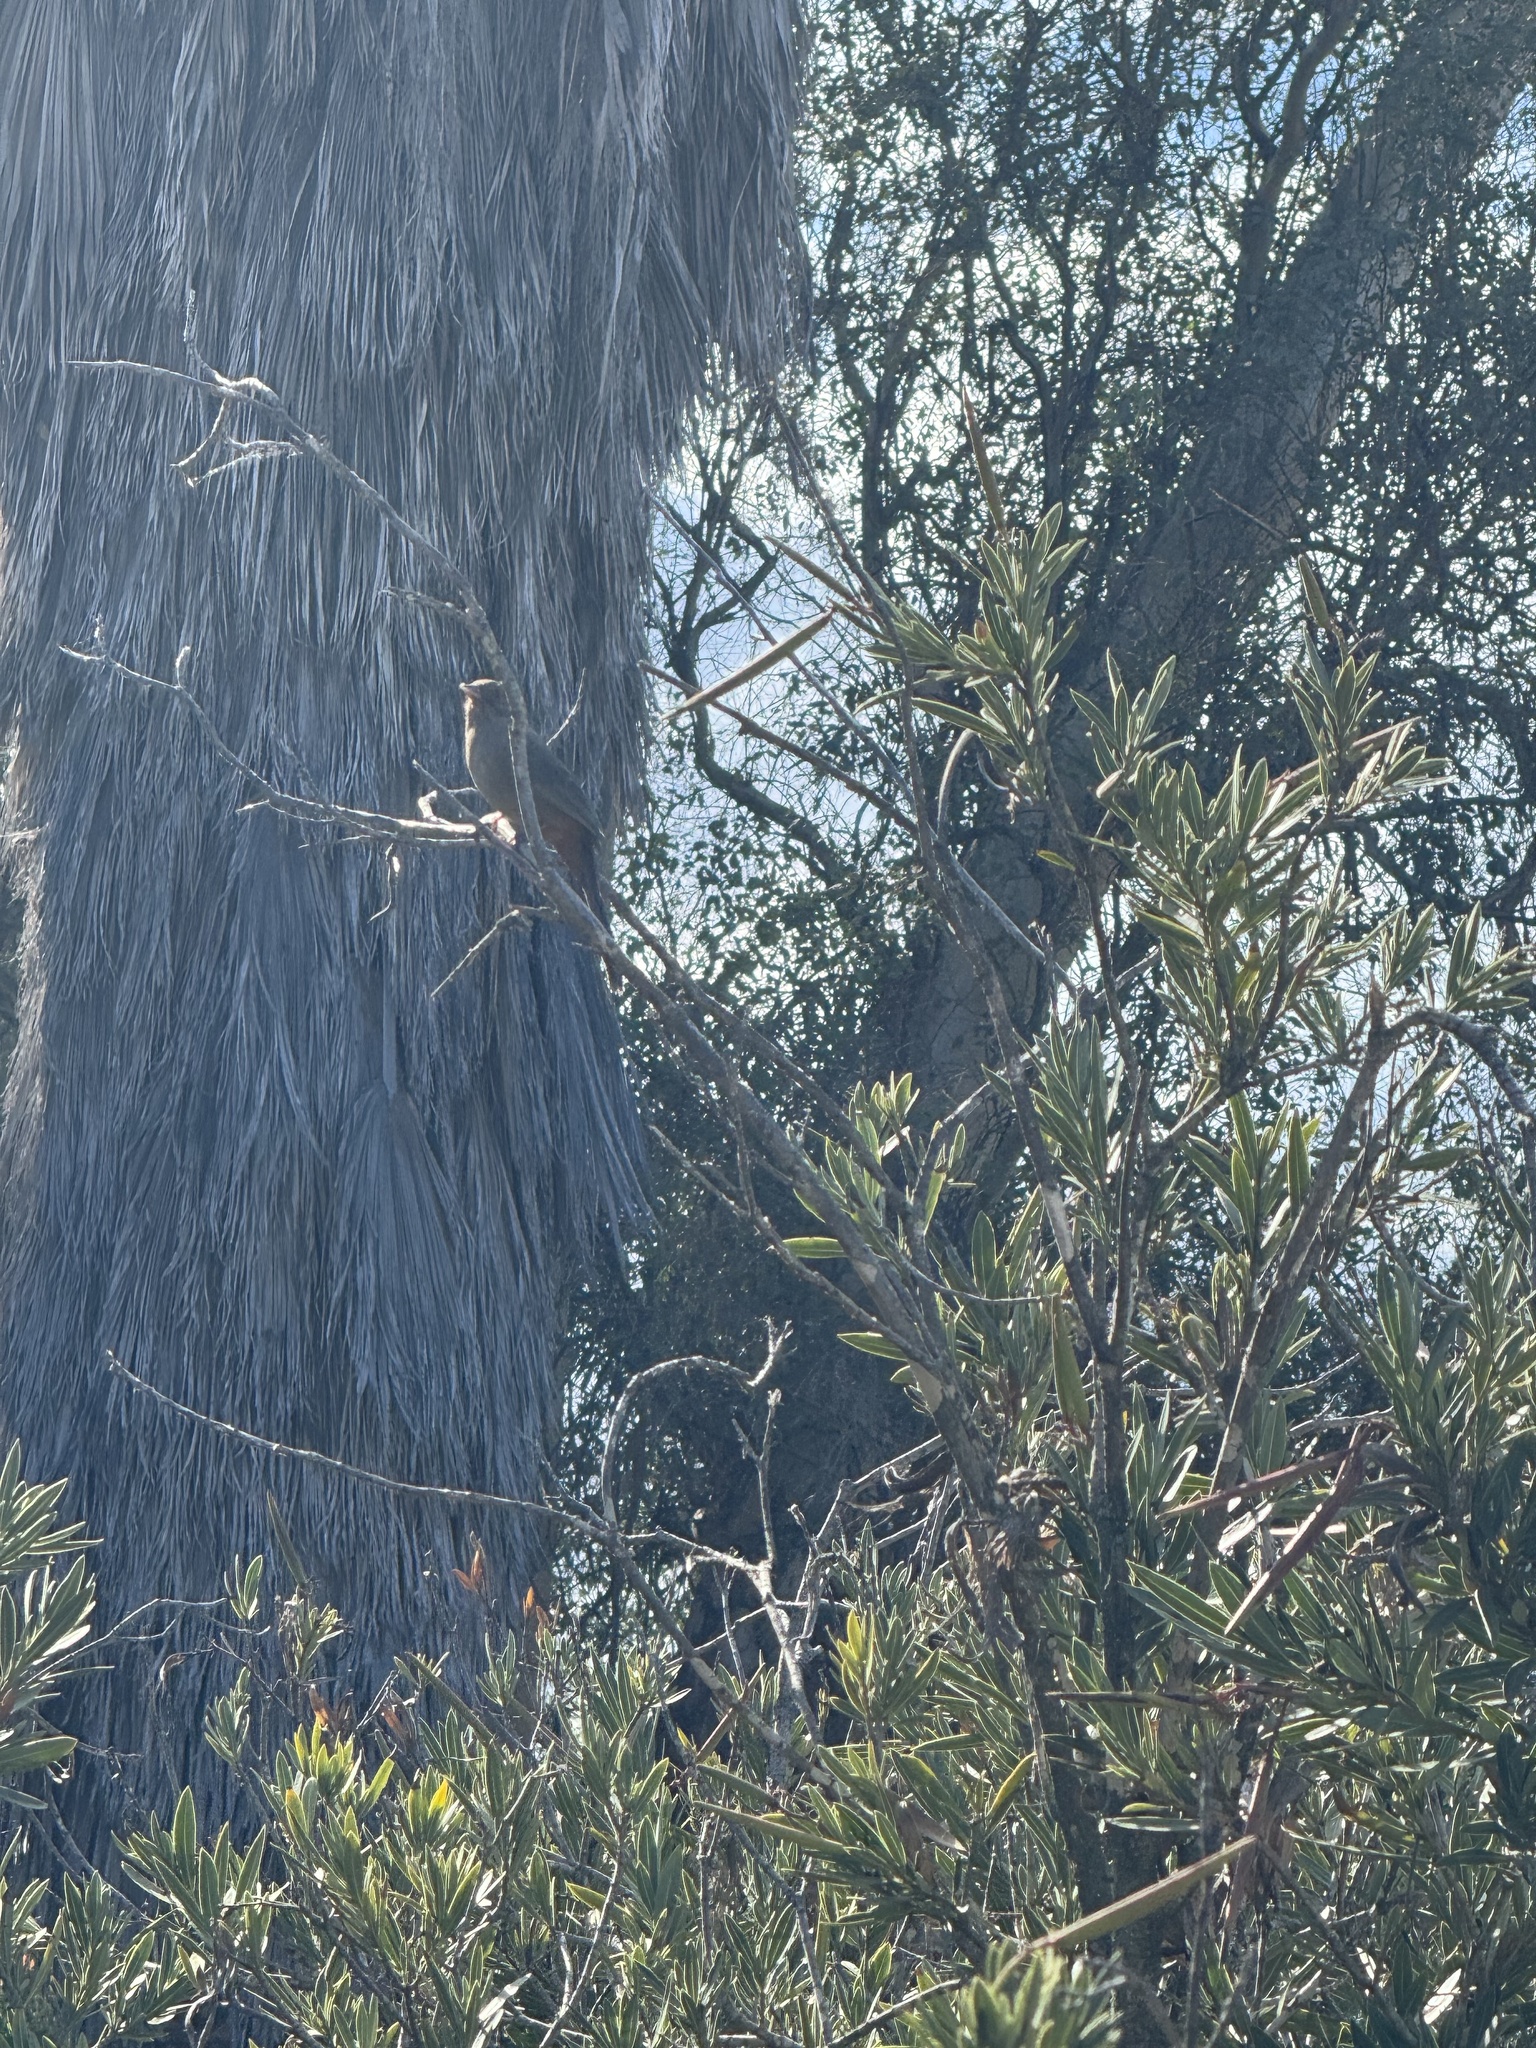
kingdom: Animalia
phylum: Chordata
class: Aves
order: Passeriformes
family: Tyrannidae
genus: Sayornis
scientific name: Sayornis saya
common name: Say's phoebe
